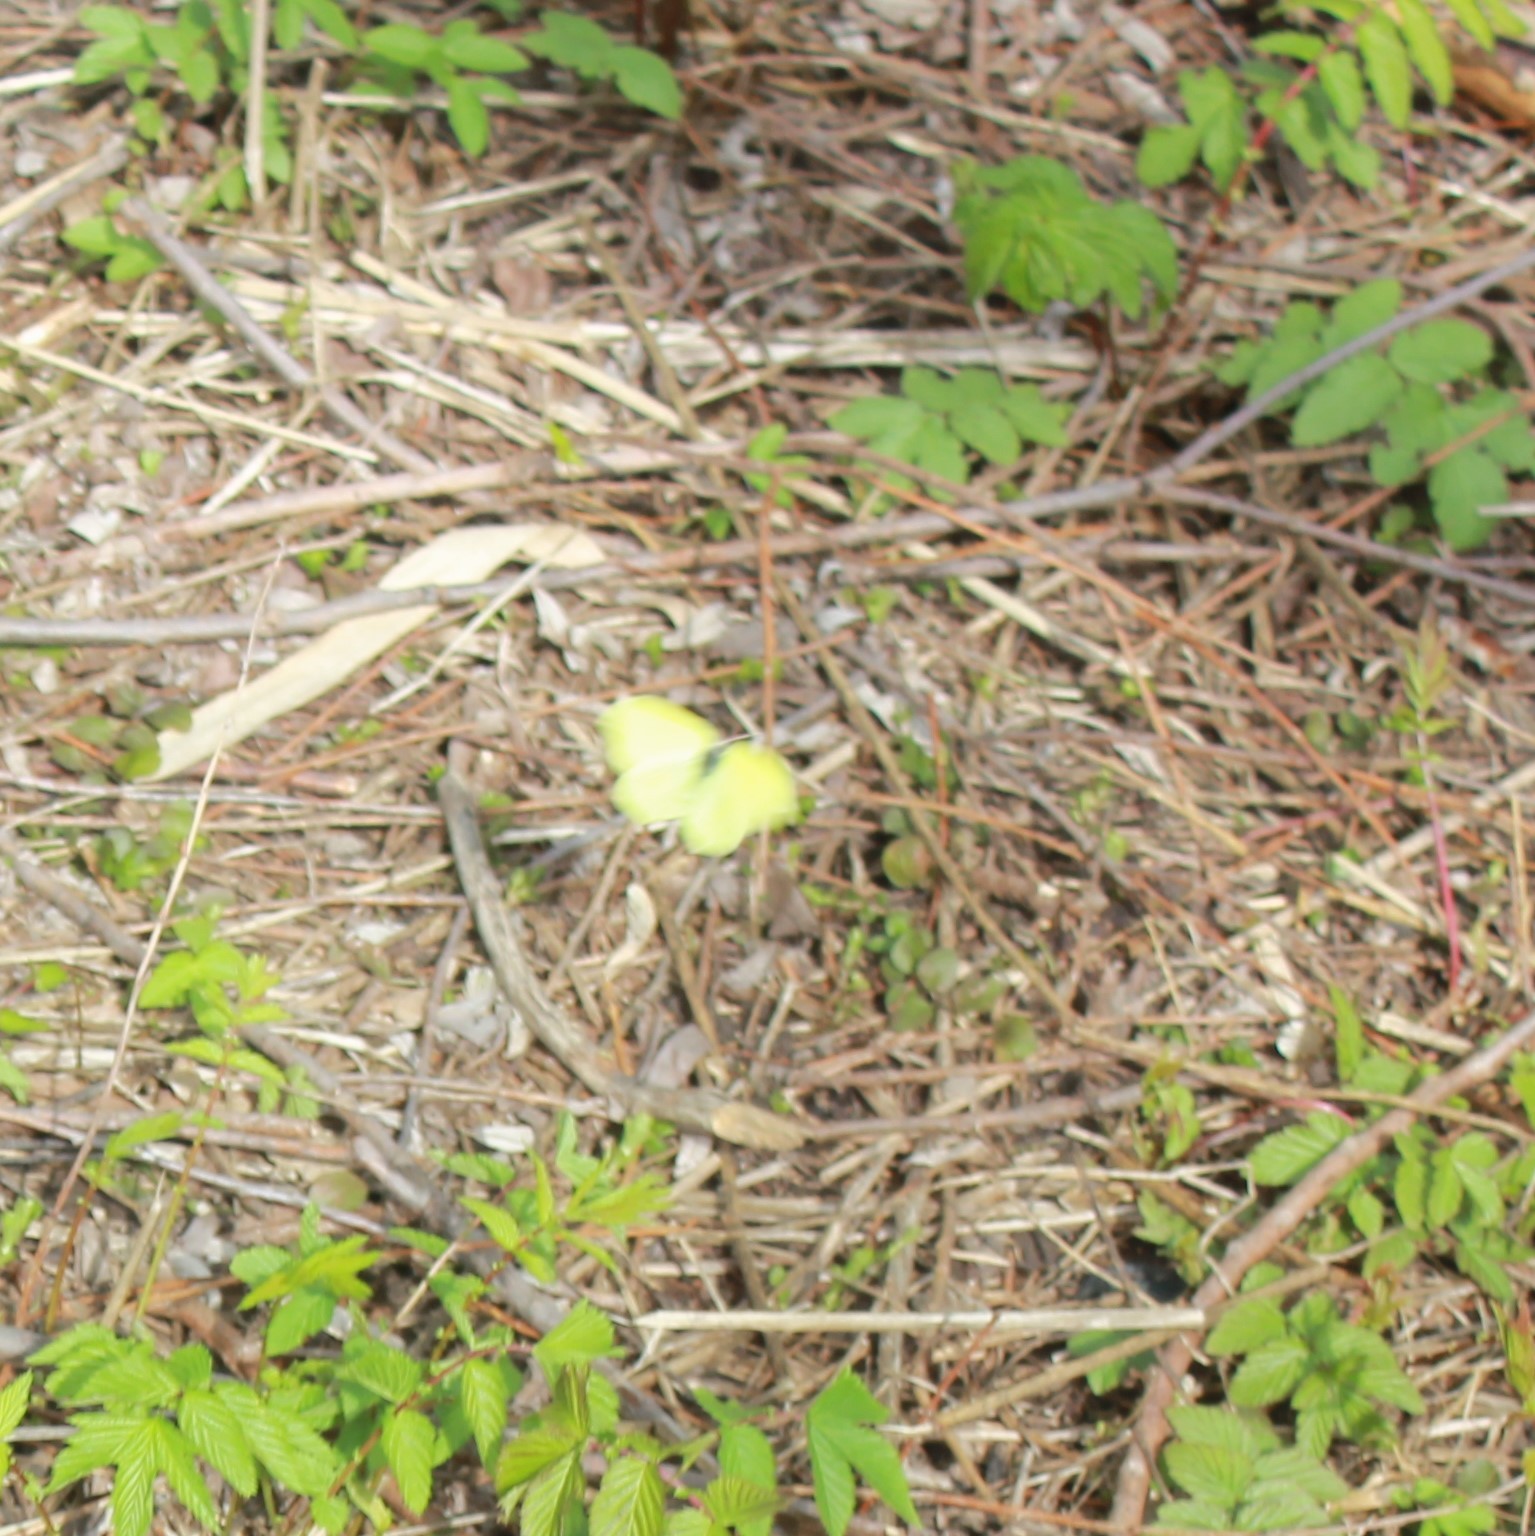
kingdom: Animalia
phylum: Arthropoda
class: Insecta
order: Lepidoptera
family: Pieridae
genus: Gonepteryx
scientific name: Gonepteryx rhamni
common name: Brimstone
